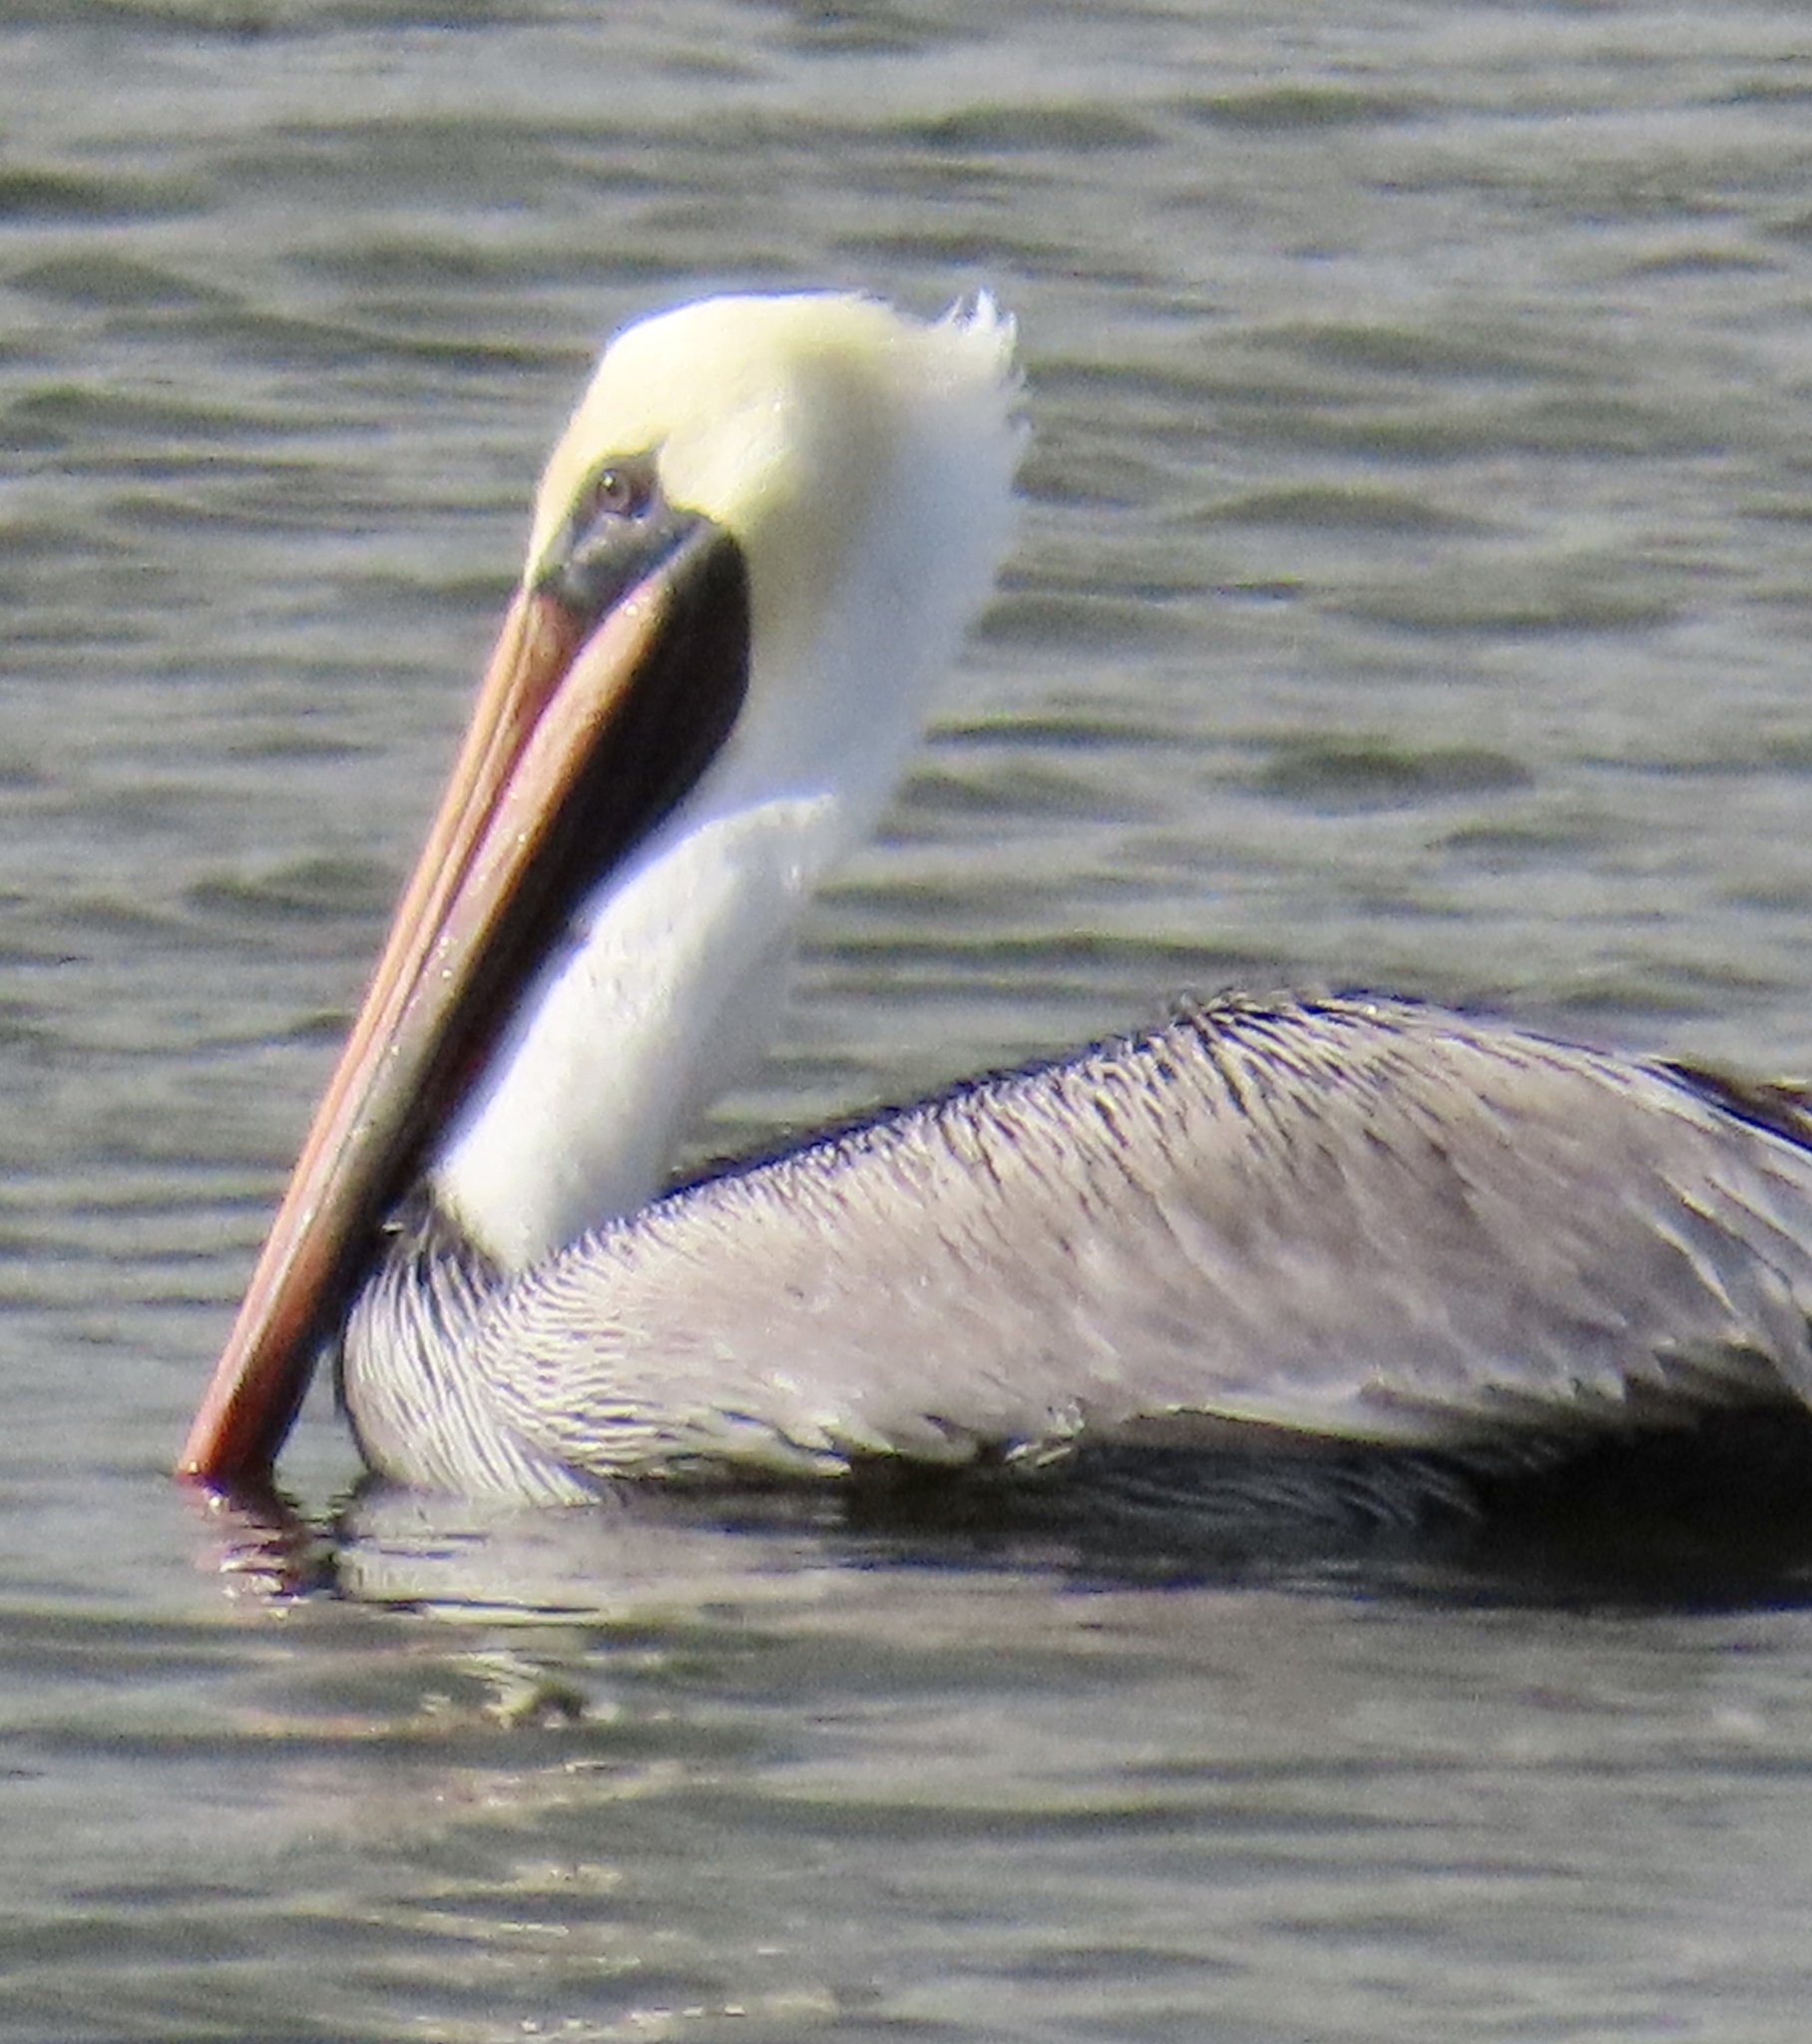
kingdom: Animalia
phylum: Chordata
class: Aves
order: Pelecaniformes
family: Pelecanidae
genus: Pelecanus
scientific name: Pelecanus occidentalis
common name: Brown pelican
